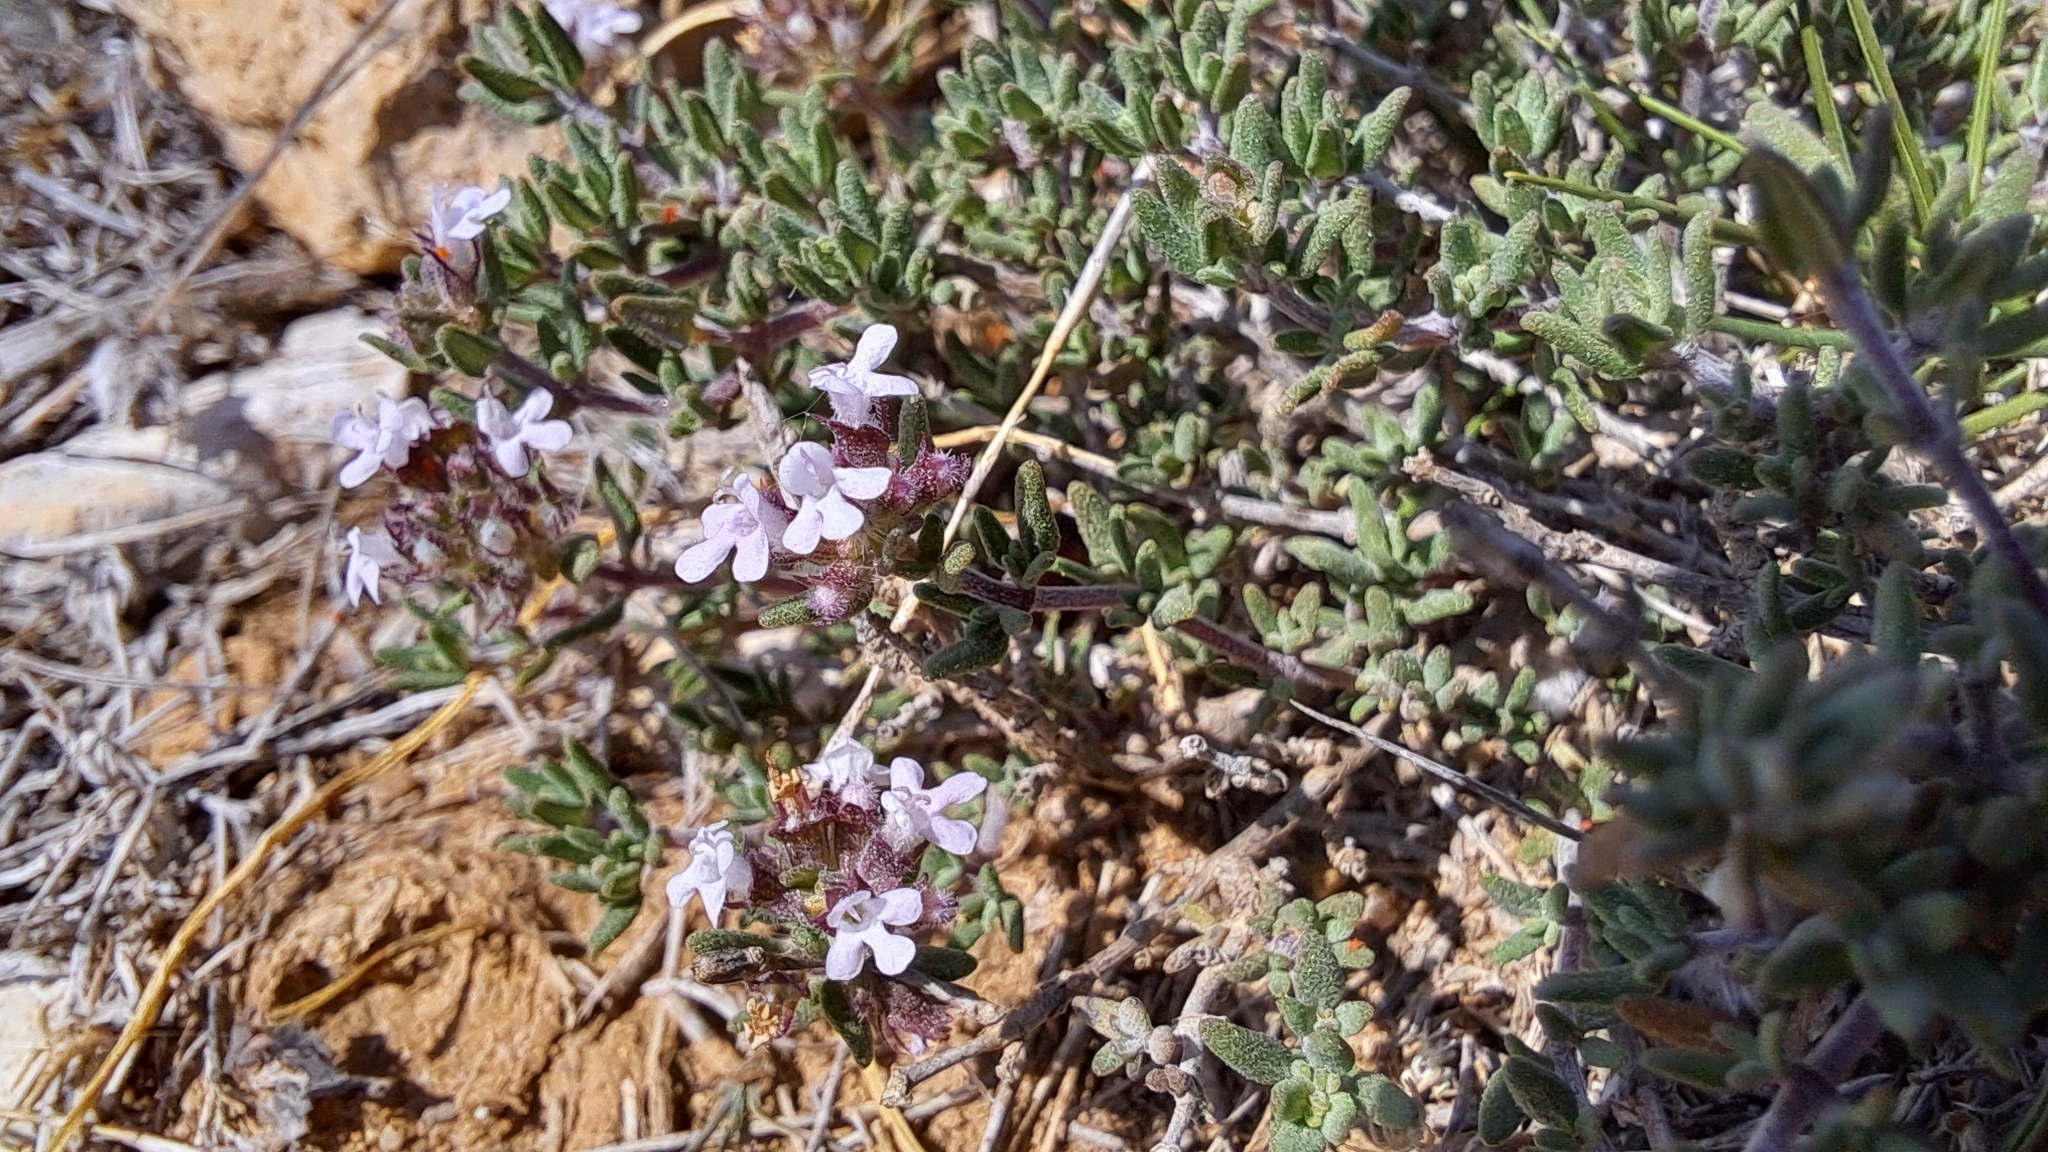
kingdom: Plantae
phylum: Tracheophyta
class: Magnoliopsida
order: Lamiales
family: Lamiaceae
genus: Thymus
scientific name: Thymus vulgaris
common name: Garden thyme
